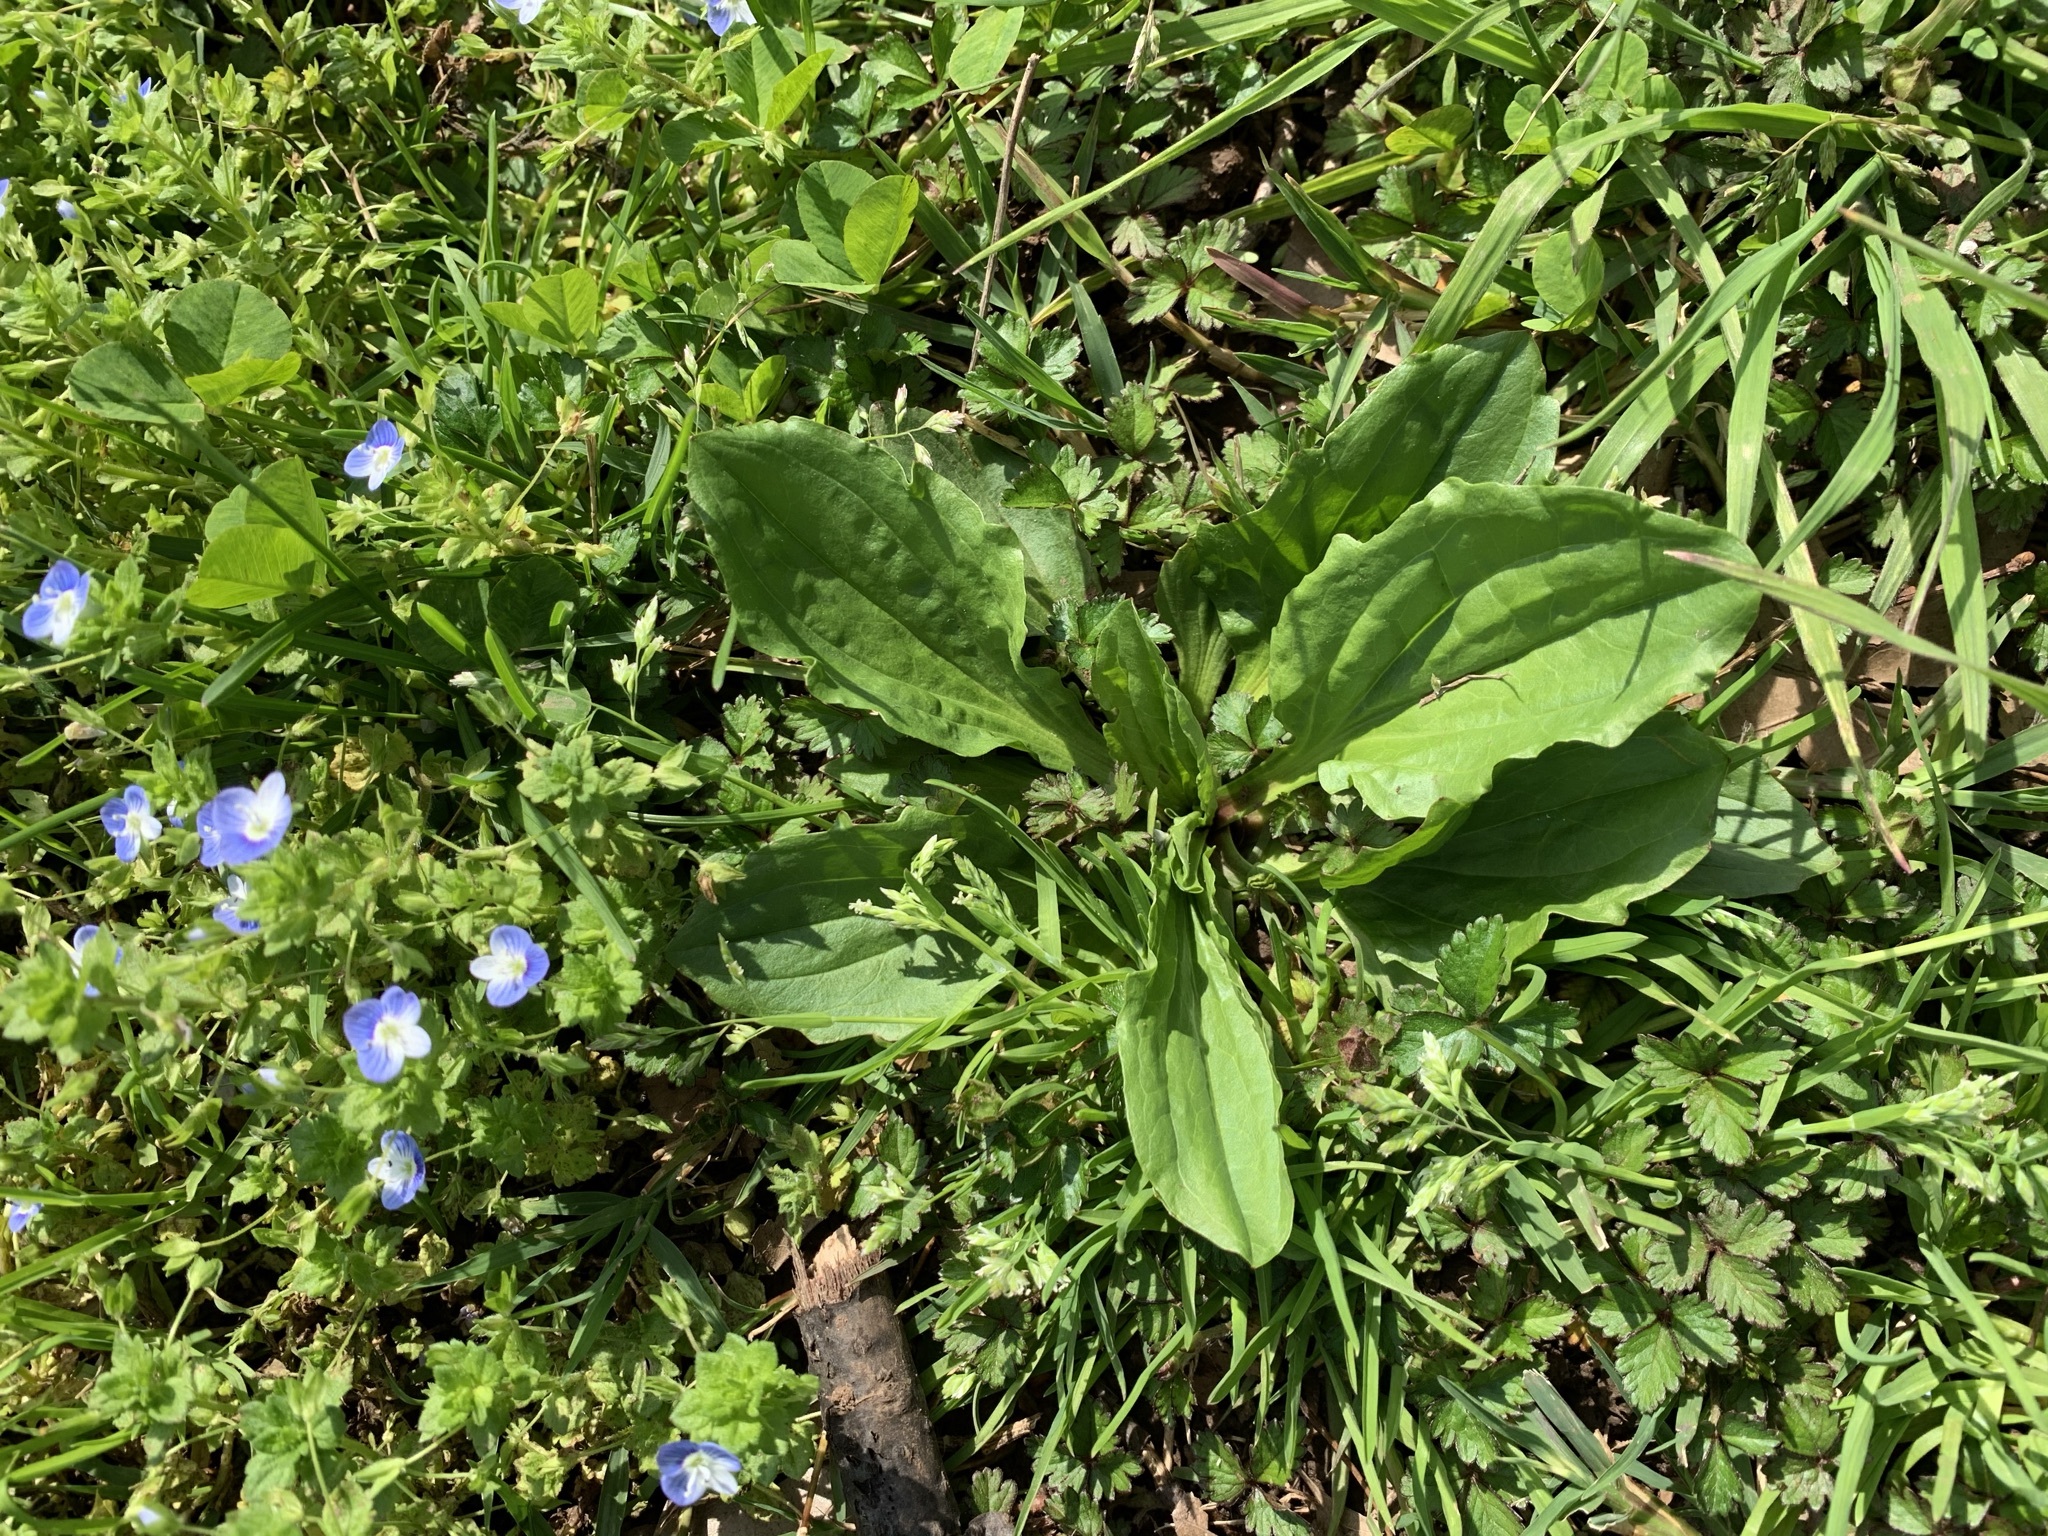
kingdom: Plantae
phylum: Tracheophyta
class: Magnoliopsida
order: Lamiales
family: Plantaginaceae
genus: Plantago
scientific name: Plantago major
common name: Common plantain
